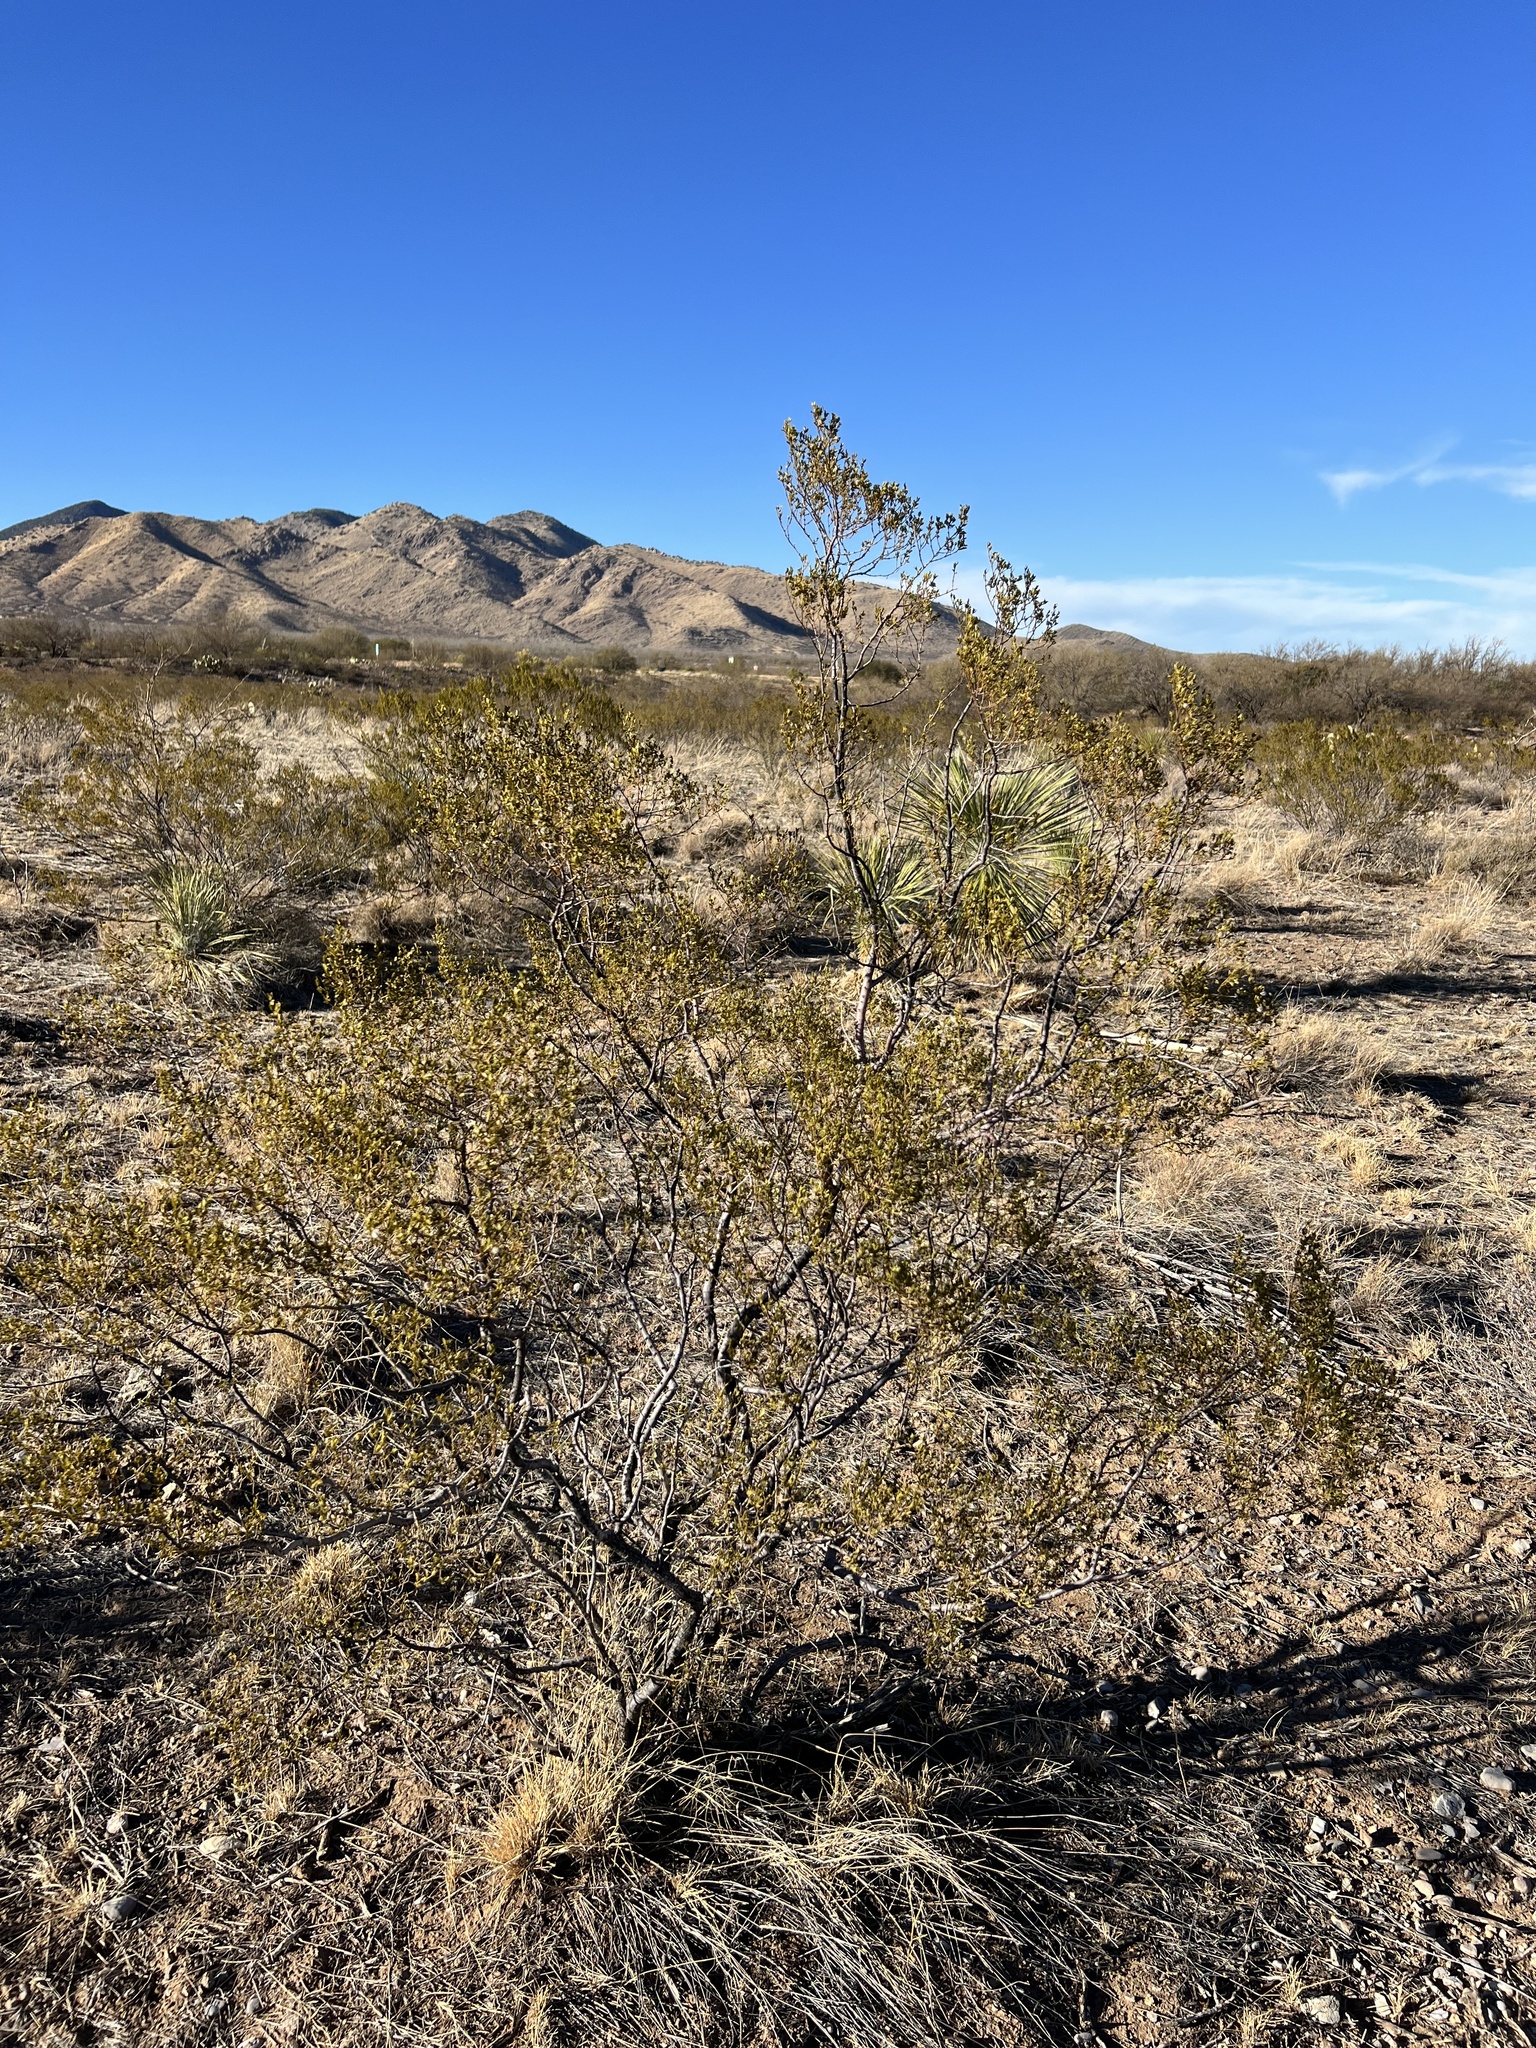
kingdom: Plantae
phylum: Tracheophyta
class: Magnoliopsida
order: Zygophyllales
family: Zygophyllaceae
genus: Larrea
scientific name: Larrea tridentata
